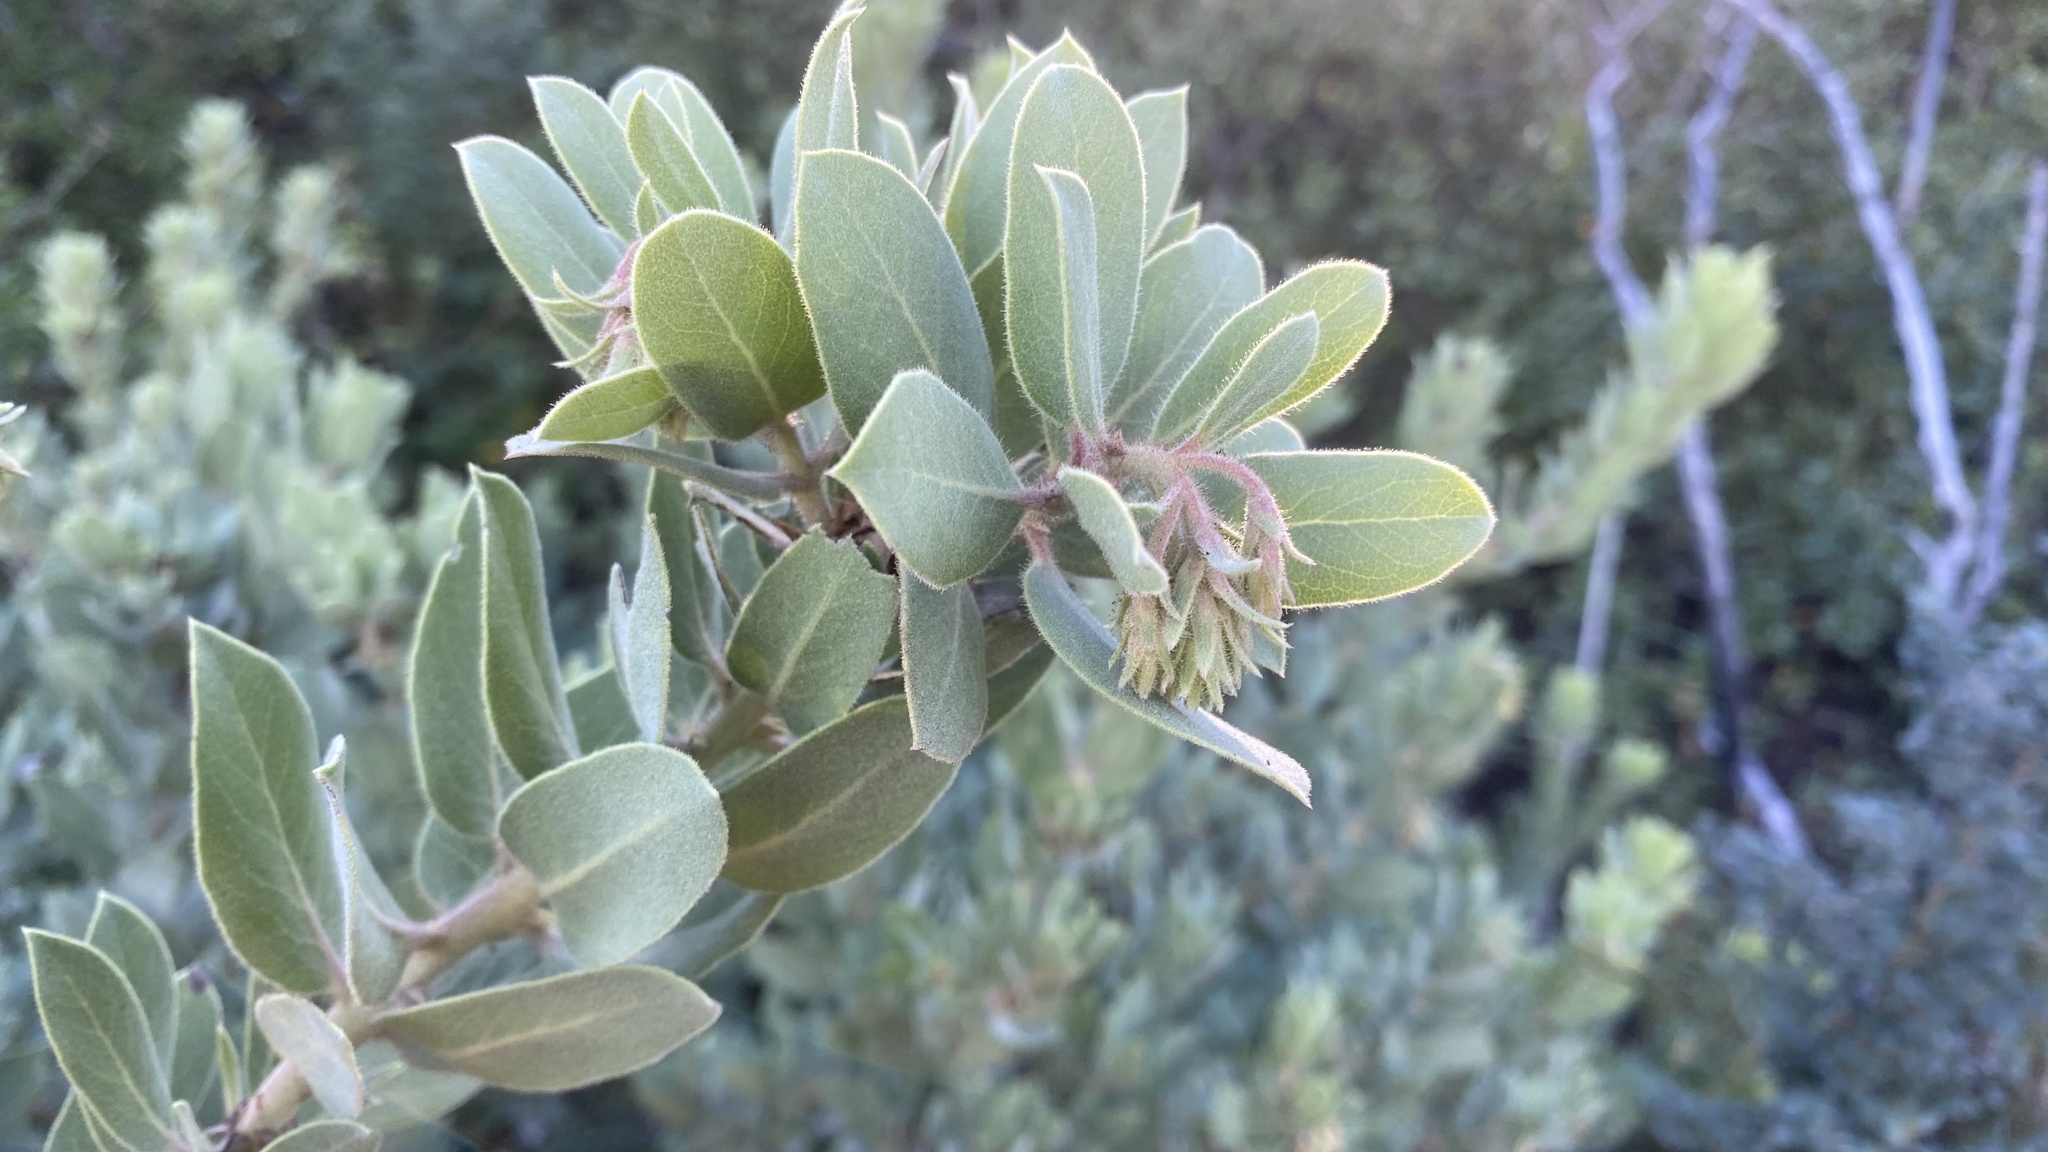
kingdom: Plantae
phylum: Tracheophyta
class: Magnoliopsida
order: Ericales
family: Ericaceae
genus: Arctostaphylos
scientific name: Arctostaphylos glandulosa
